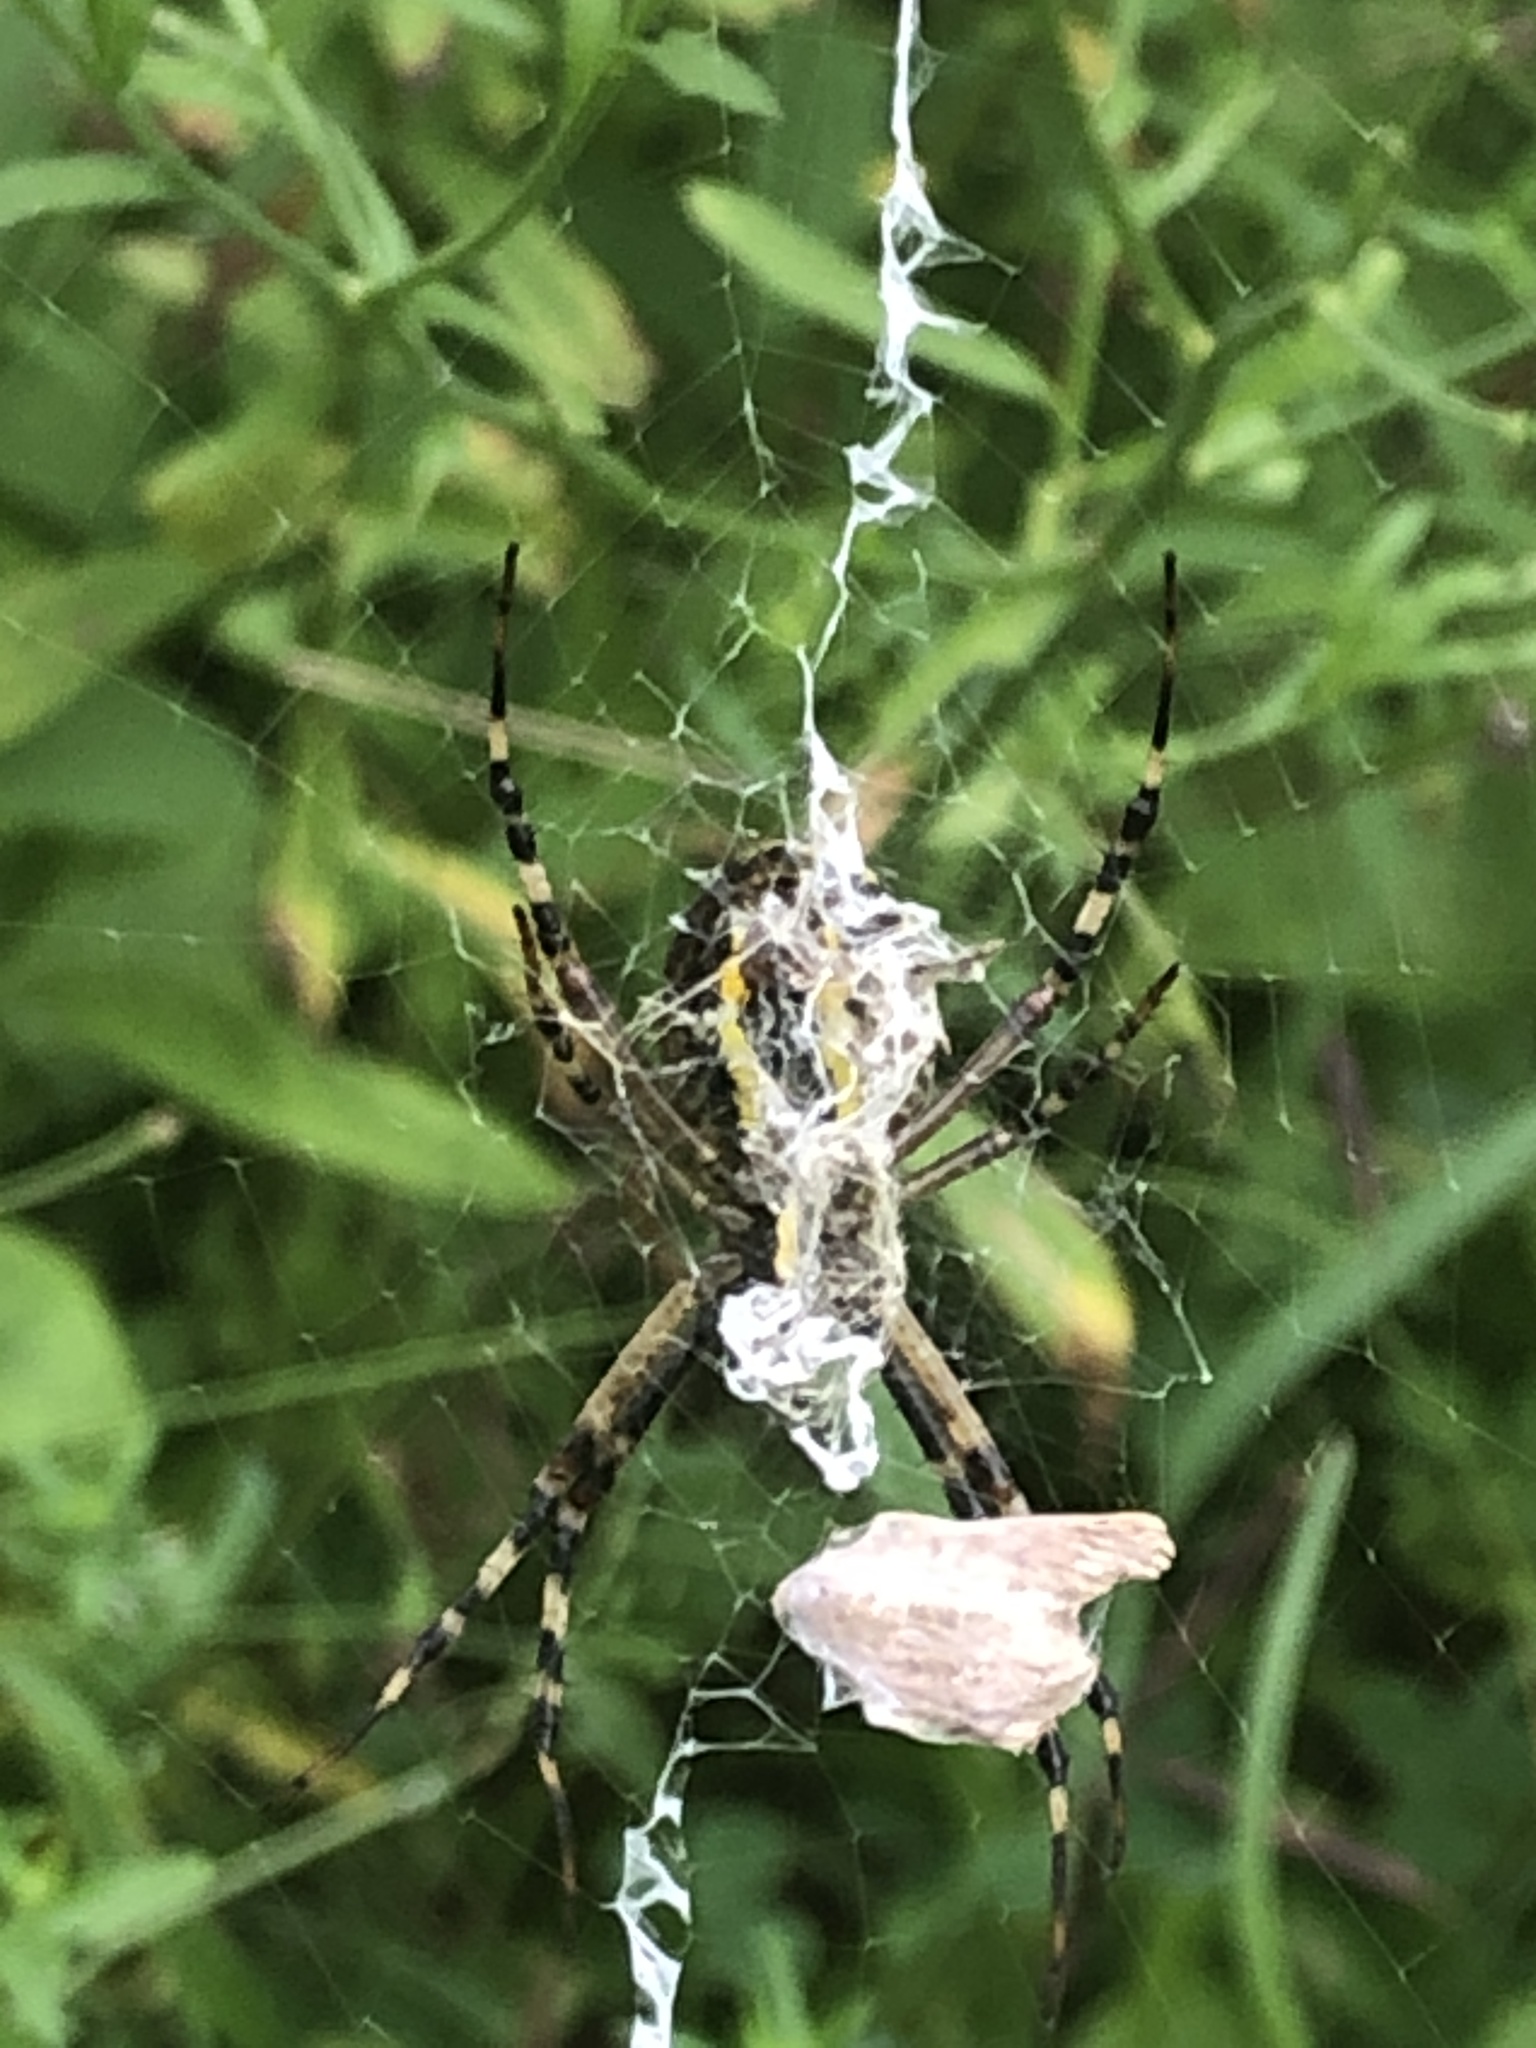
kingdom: Animalia
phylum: Arthropoda
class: Arachnida
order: Araneae
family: Araneidae
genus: Argiope
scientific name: Argiope bruennichi
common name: Wasp spider
